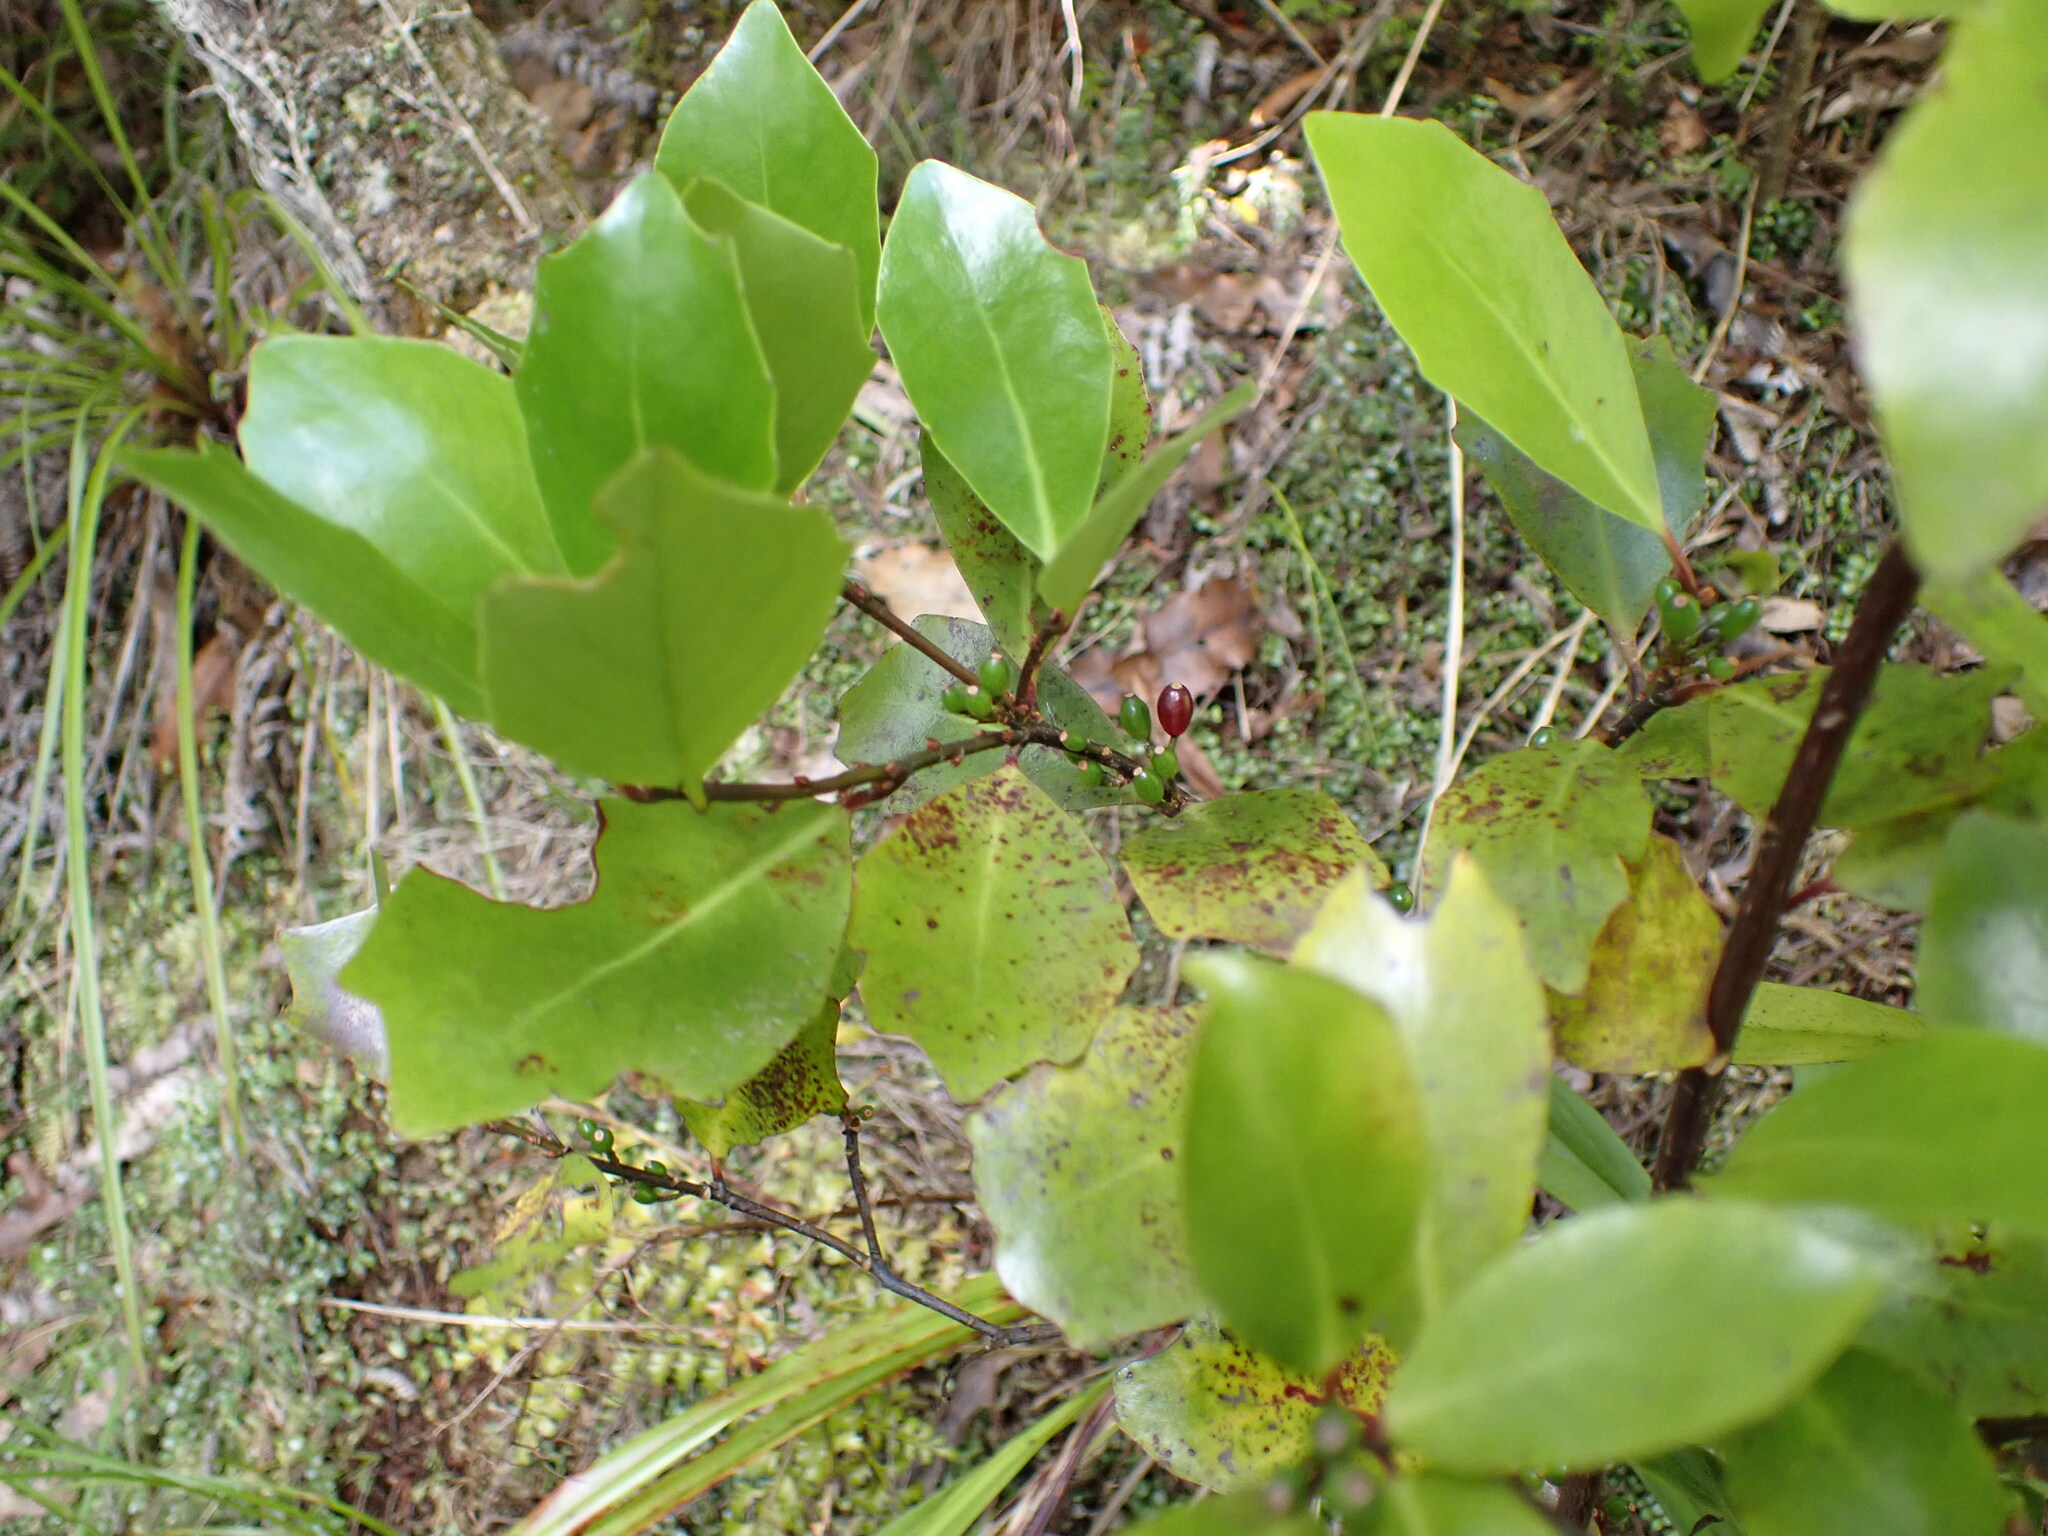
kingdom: Plantae
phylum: Tracheophyta
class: Magnoliopsida
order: Asterales
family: Alseuosmiaceae
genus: Alseuosmia
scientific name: Alseuosmia quercifolia
